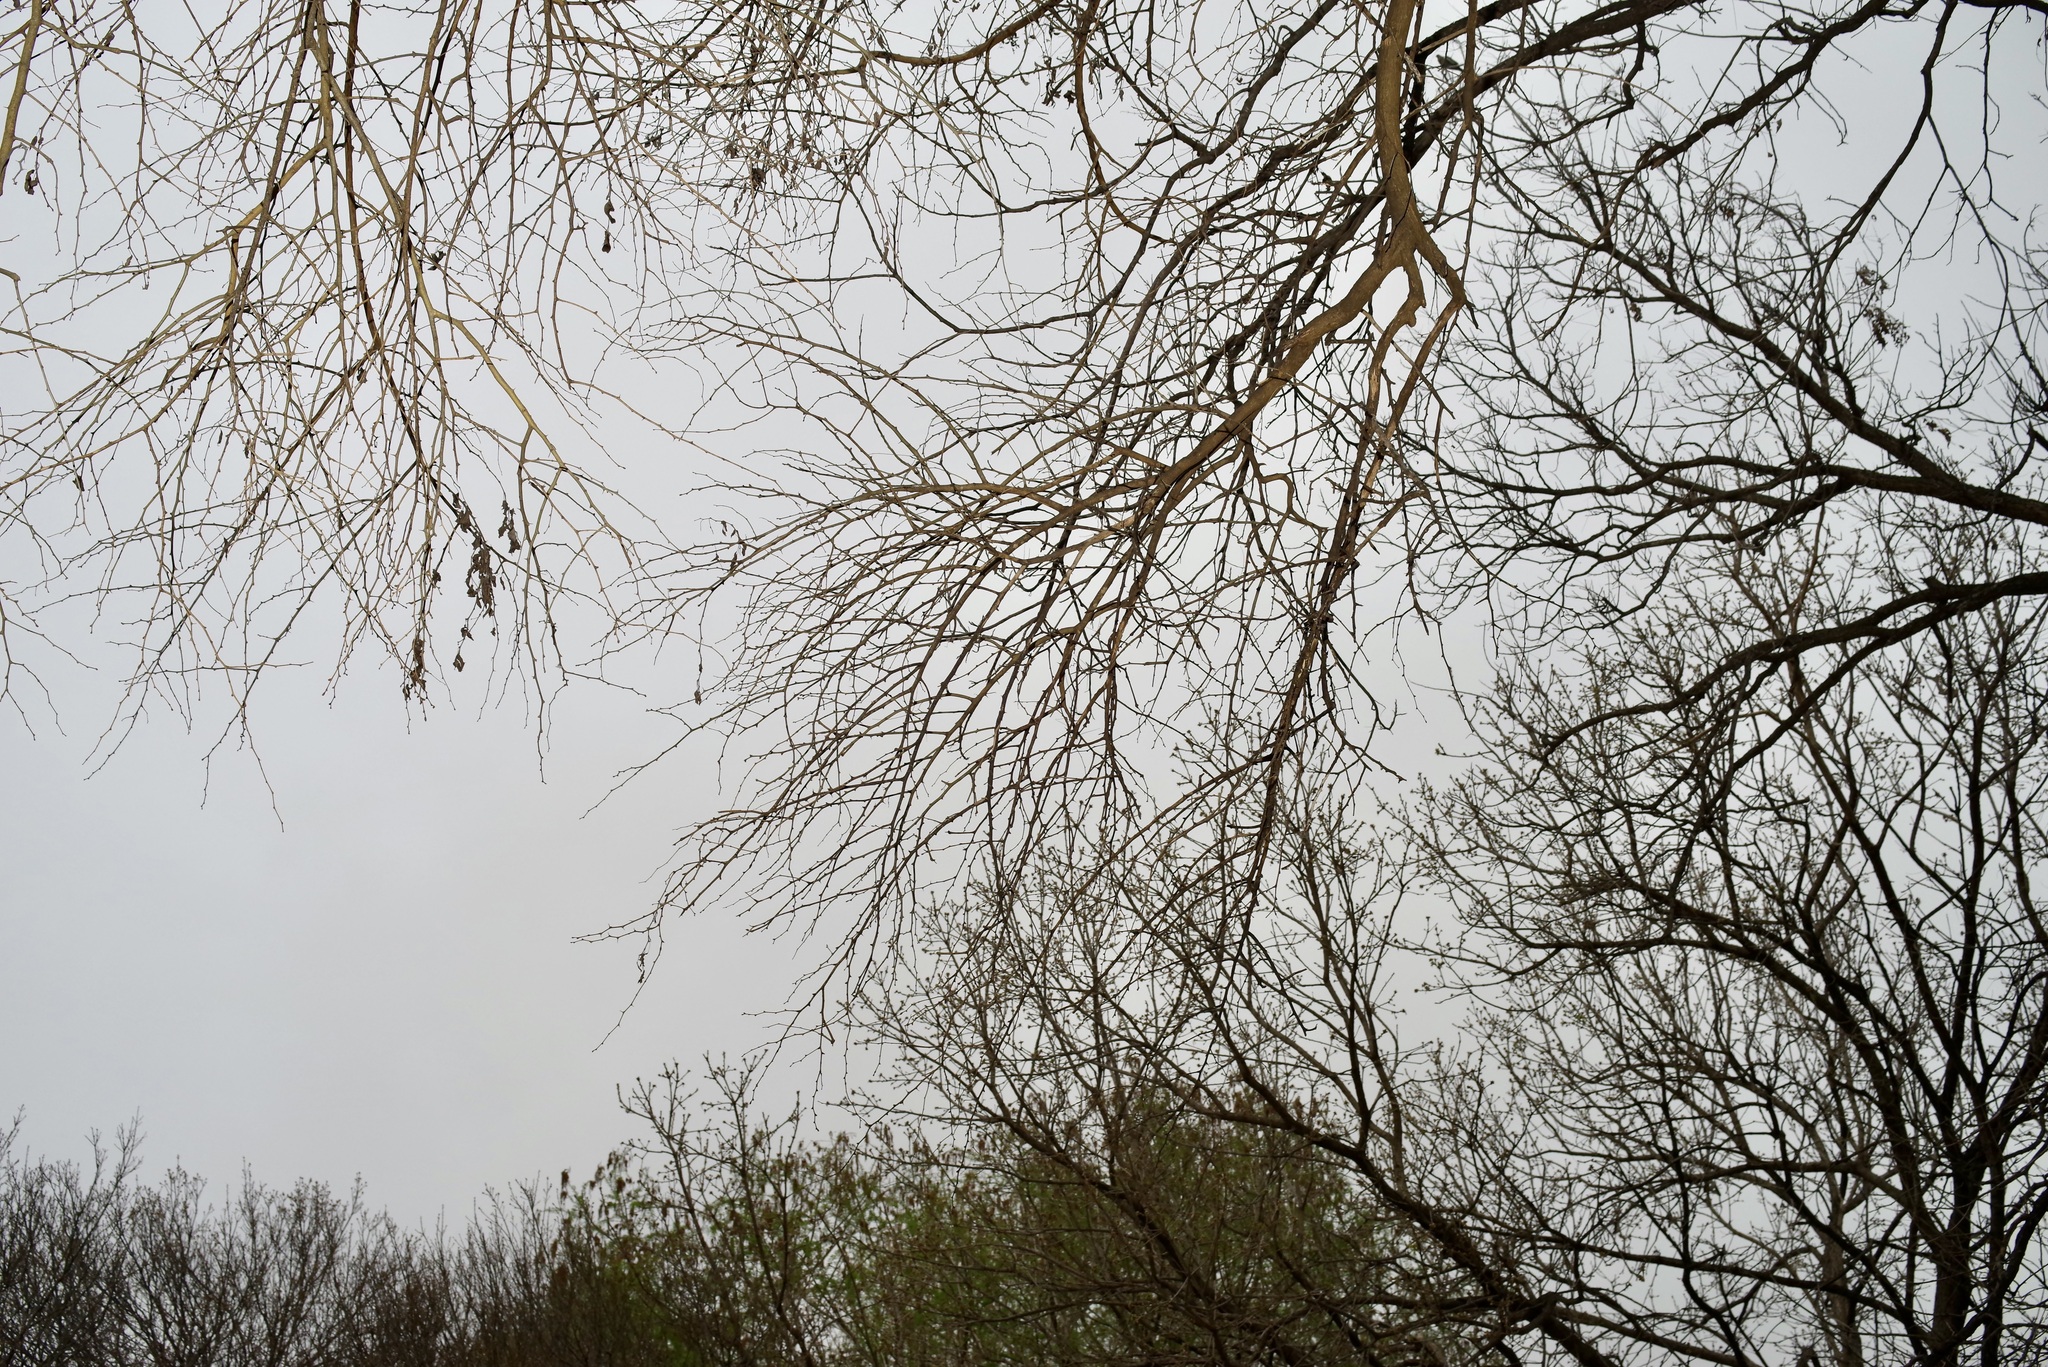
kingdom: Plantae
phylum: Tracheophyta
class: Magnoliopsida
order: Rosales
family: Moraceae
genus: Maclura
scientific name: Maclura pomifera
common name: Osage-orange
